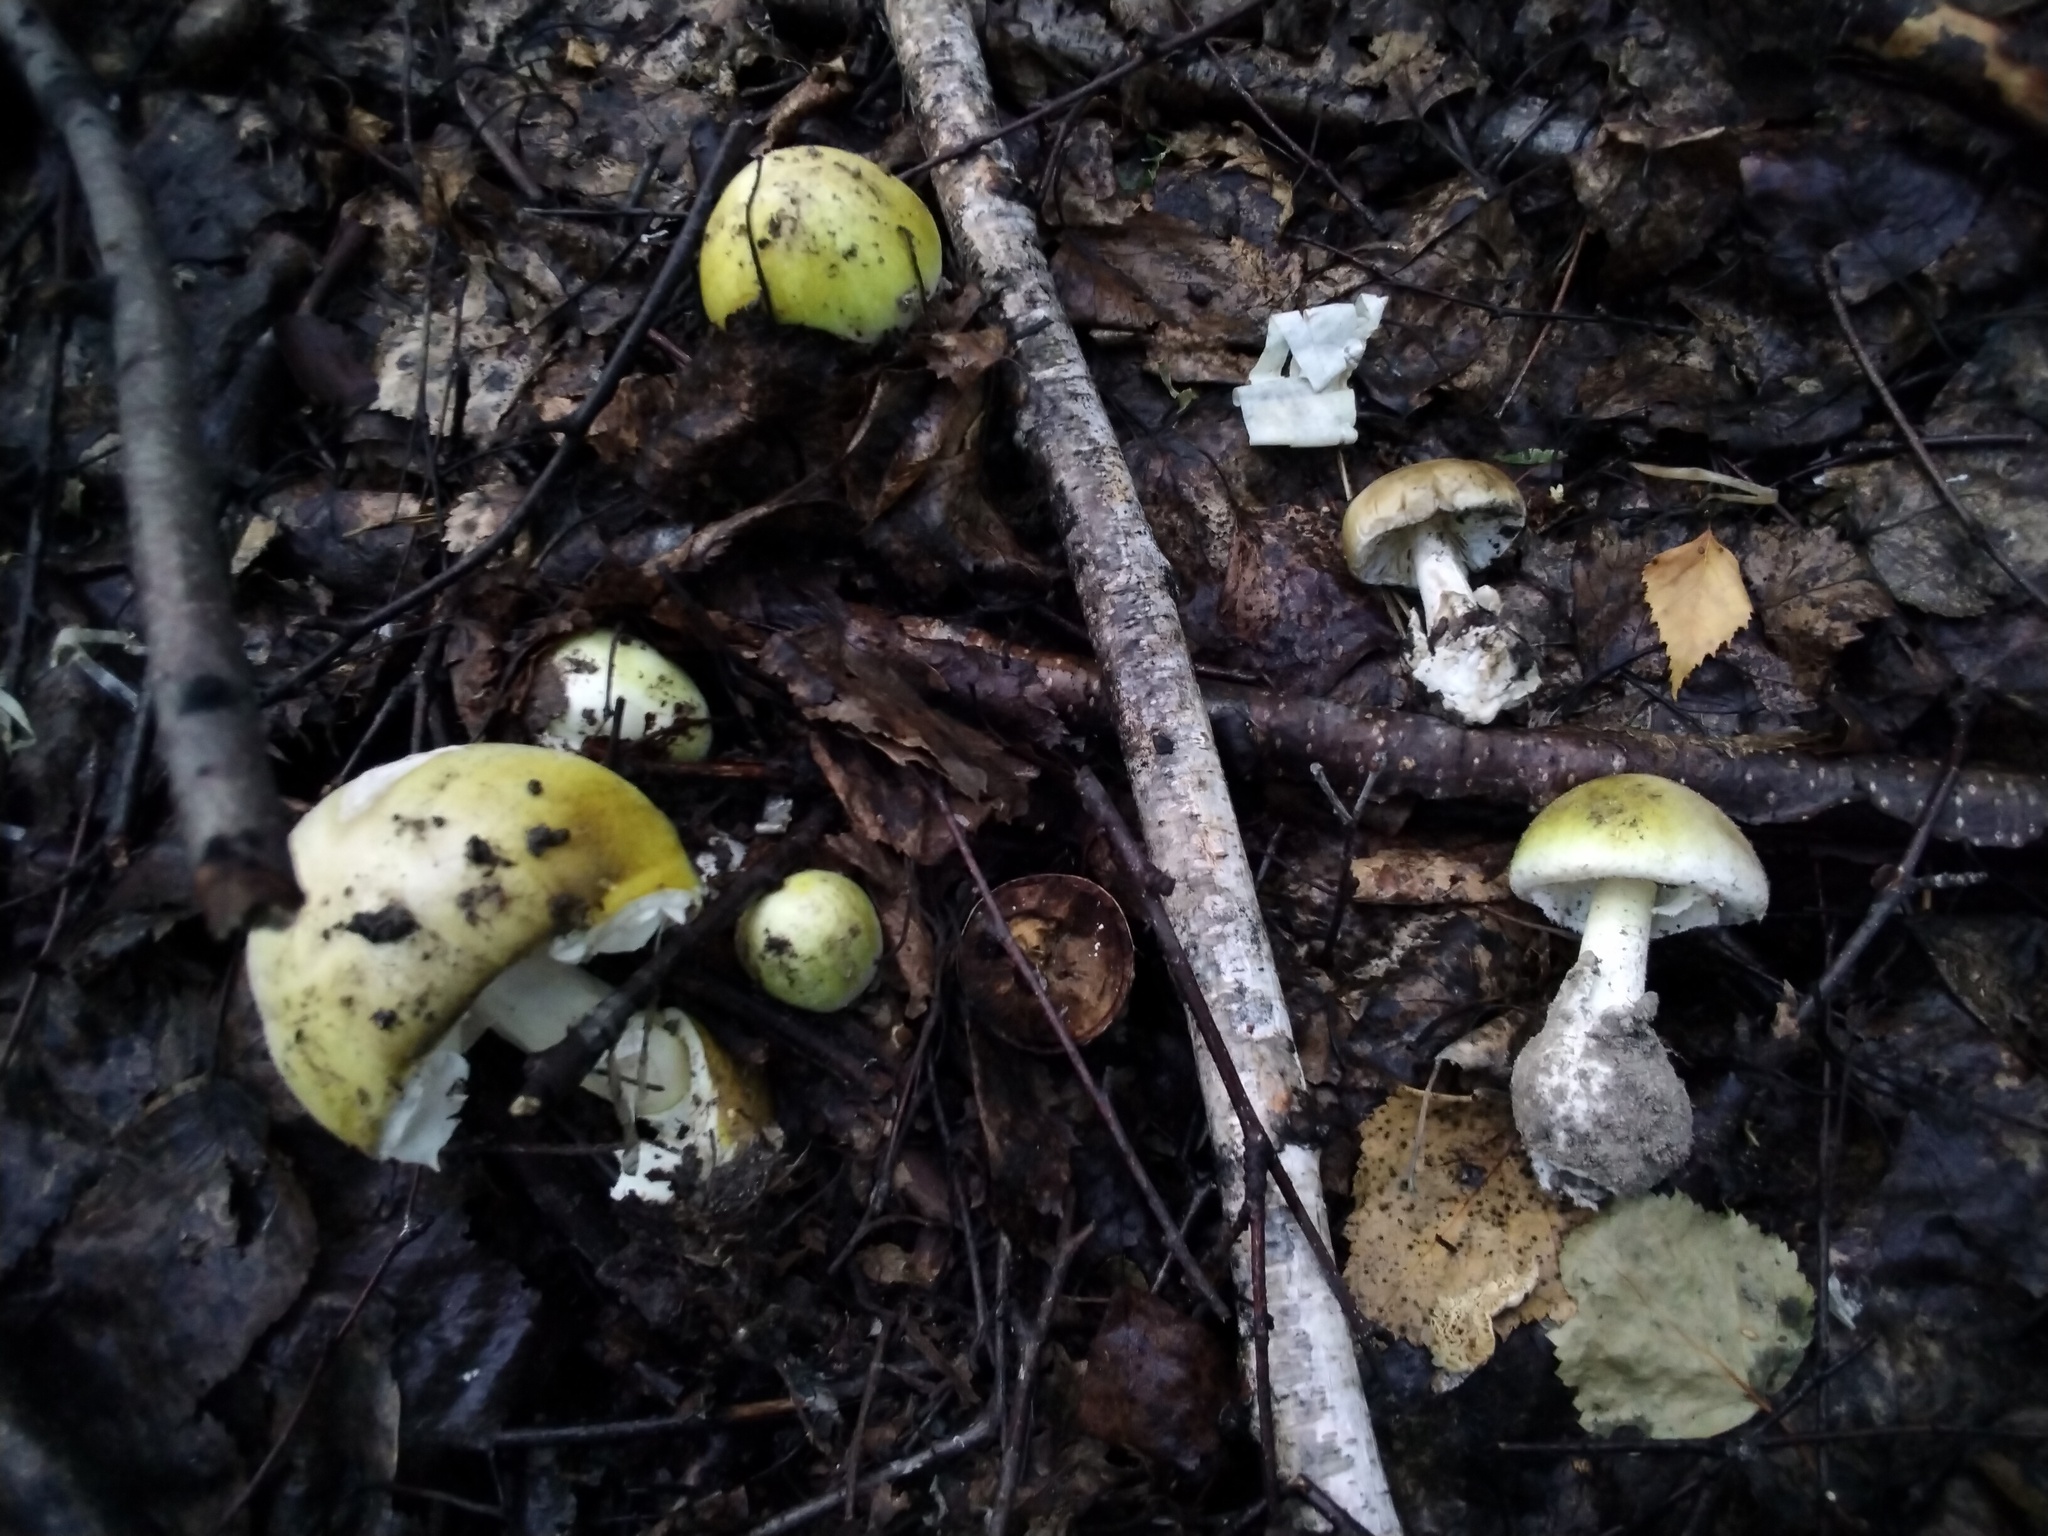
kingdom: Fungi
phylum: Basidiomycota
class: Agaricomycetes
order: Agaricales
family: Amanitaceae
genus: Amanita
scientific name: Amanita phalloides
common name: Death cap
